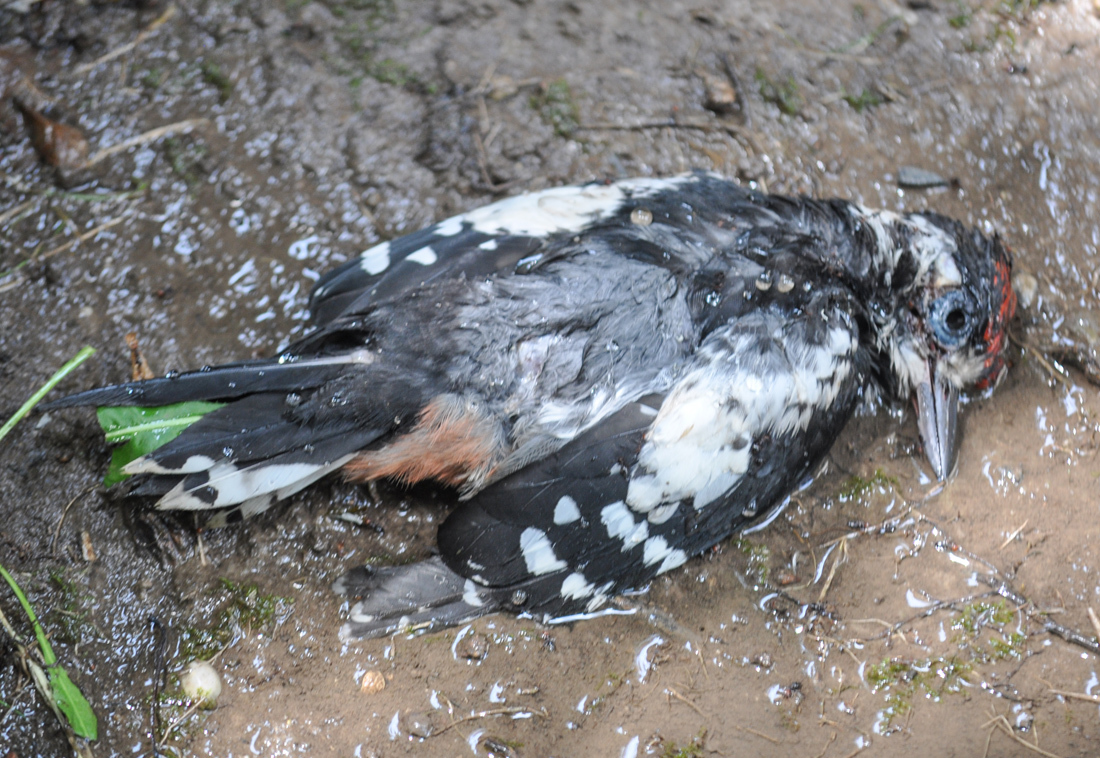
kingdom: Animalia
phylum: Chordata
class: Aves
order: Piciformes
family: Picidae
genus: Dendrocopos
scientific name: Dendrocopos major
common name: Great spotted woodpecker
